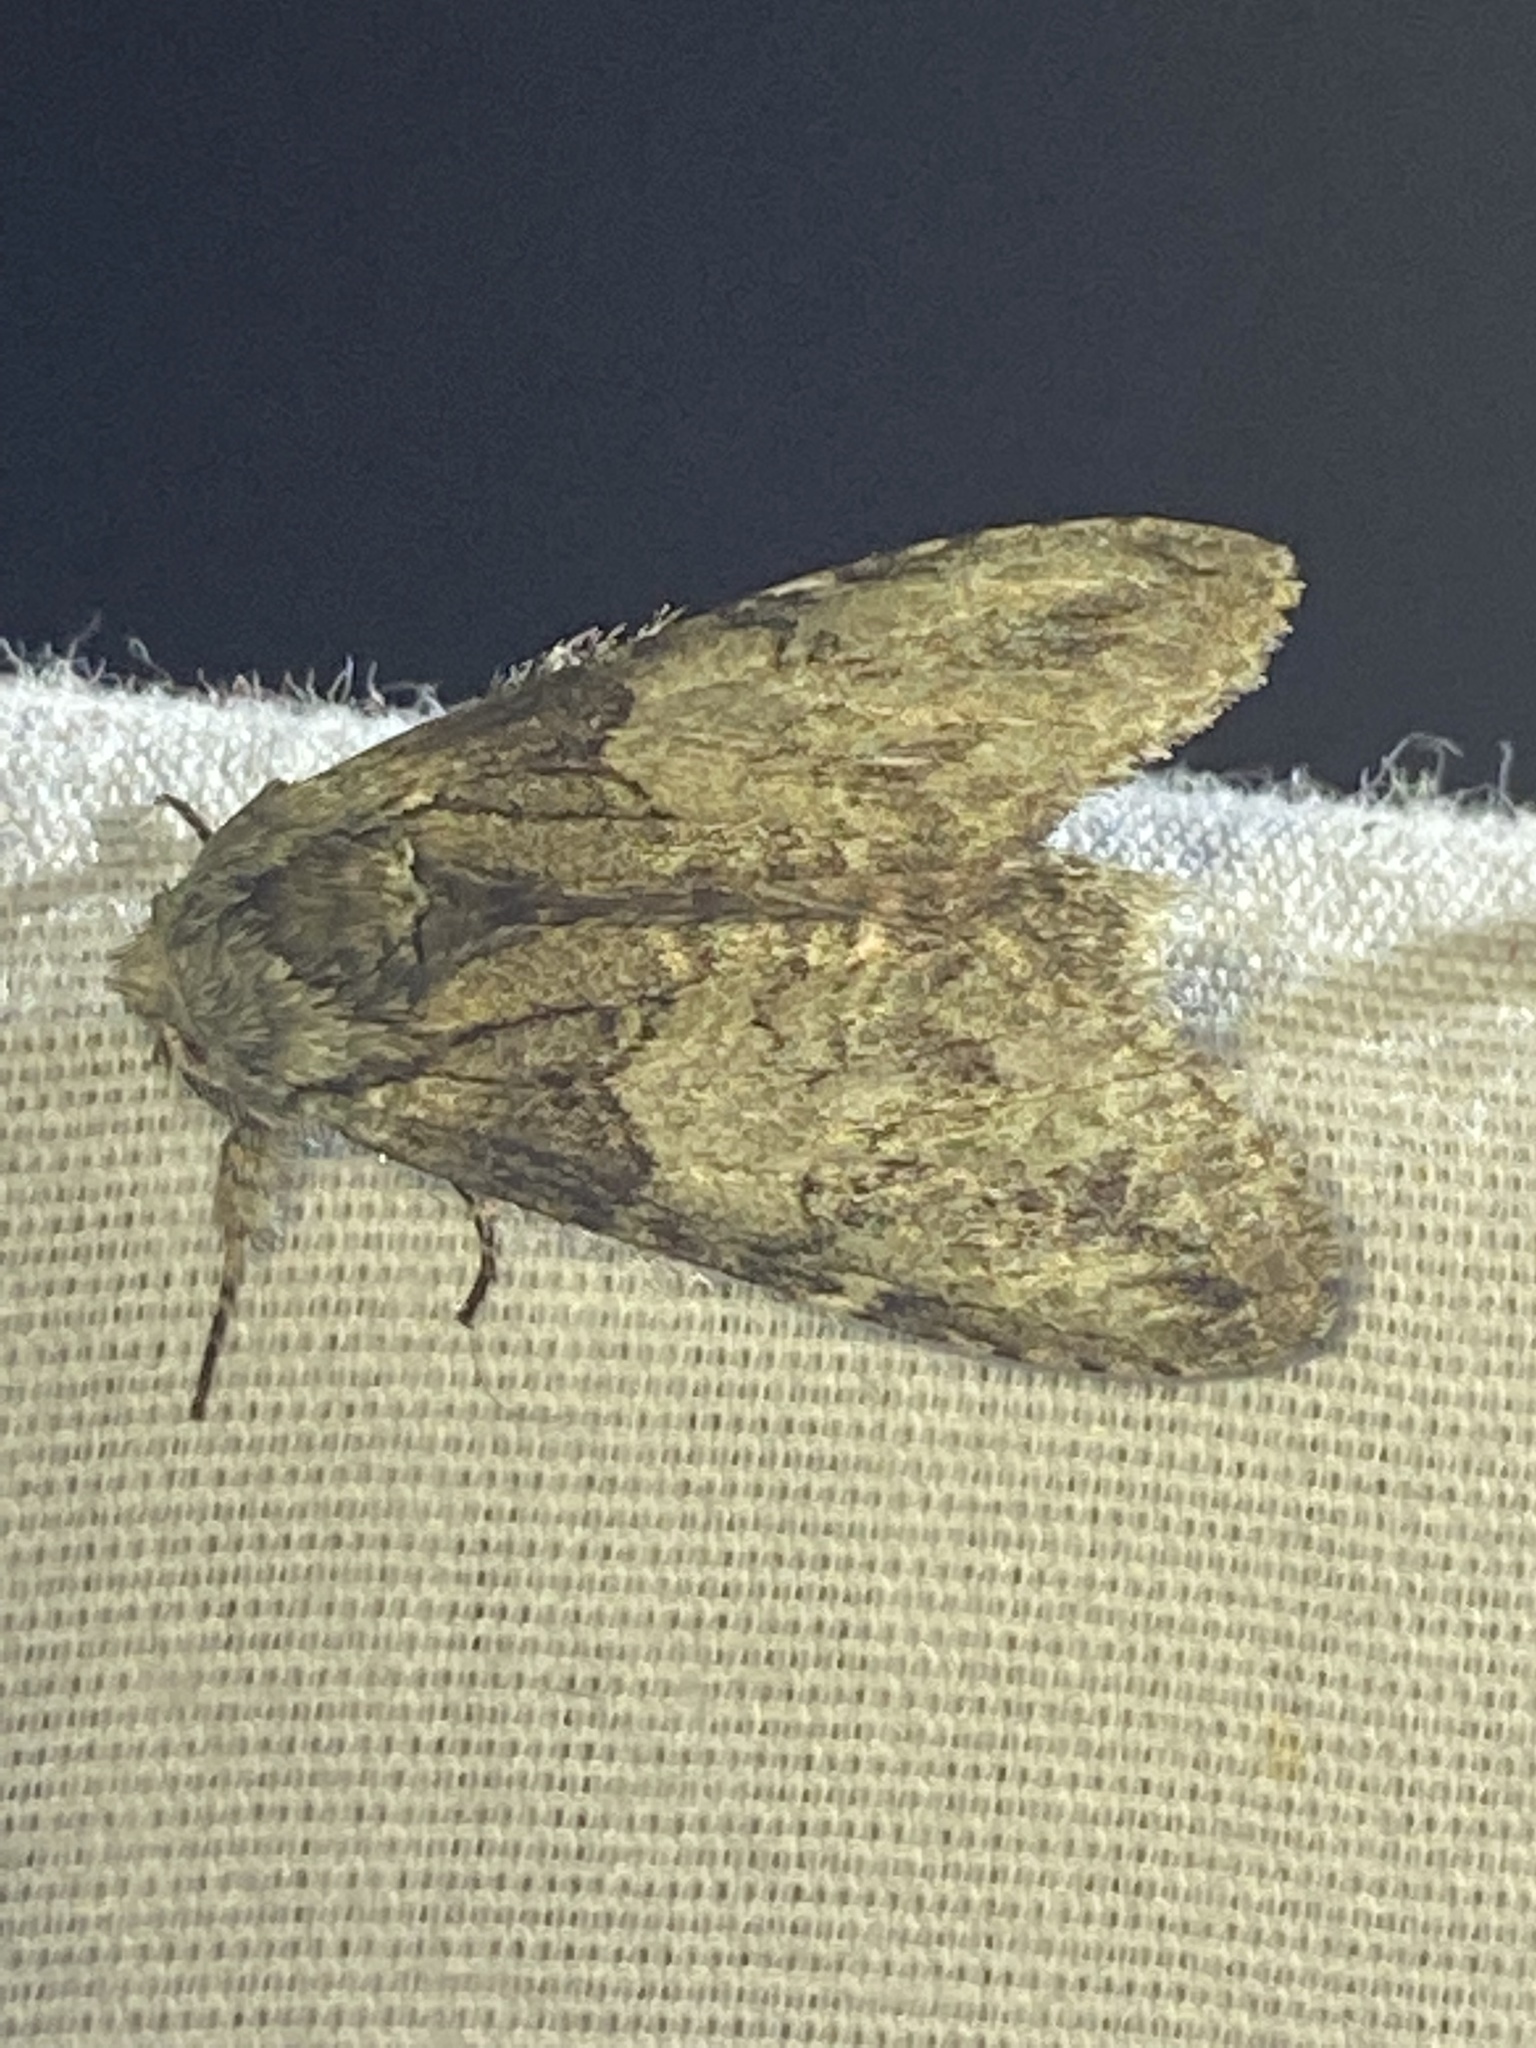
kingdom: Animalia
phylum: Arthropoda
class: Insecta
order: Lepidoptera
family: Notodontidae
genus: Macrurocampa
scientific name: Macrurocampa marthesia
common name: Mottled prominent
